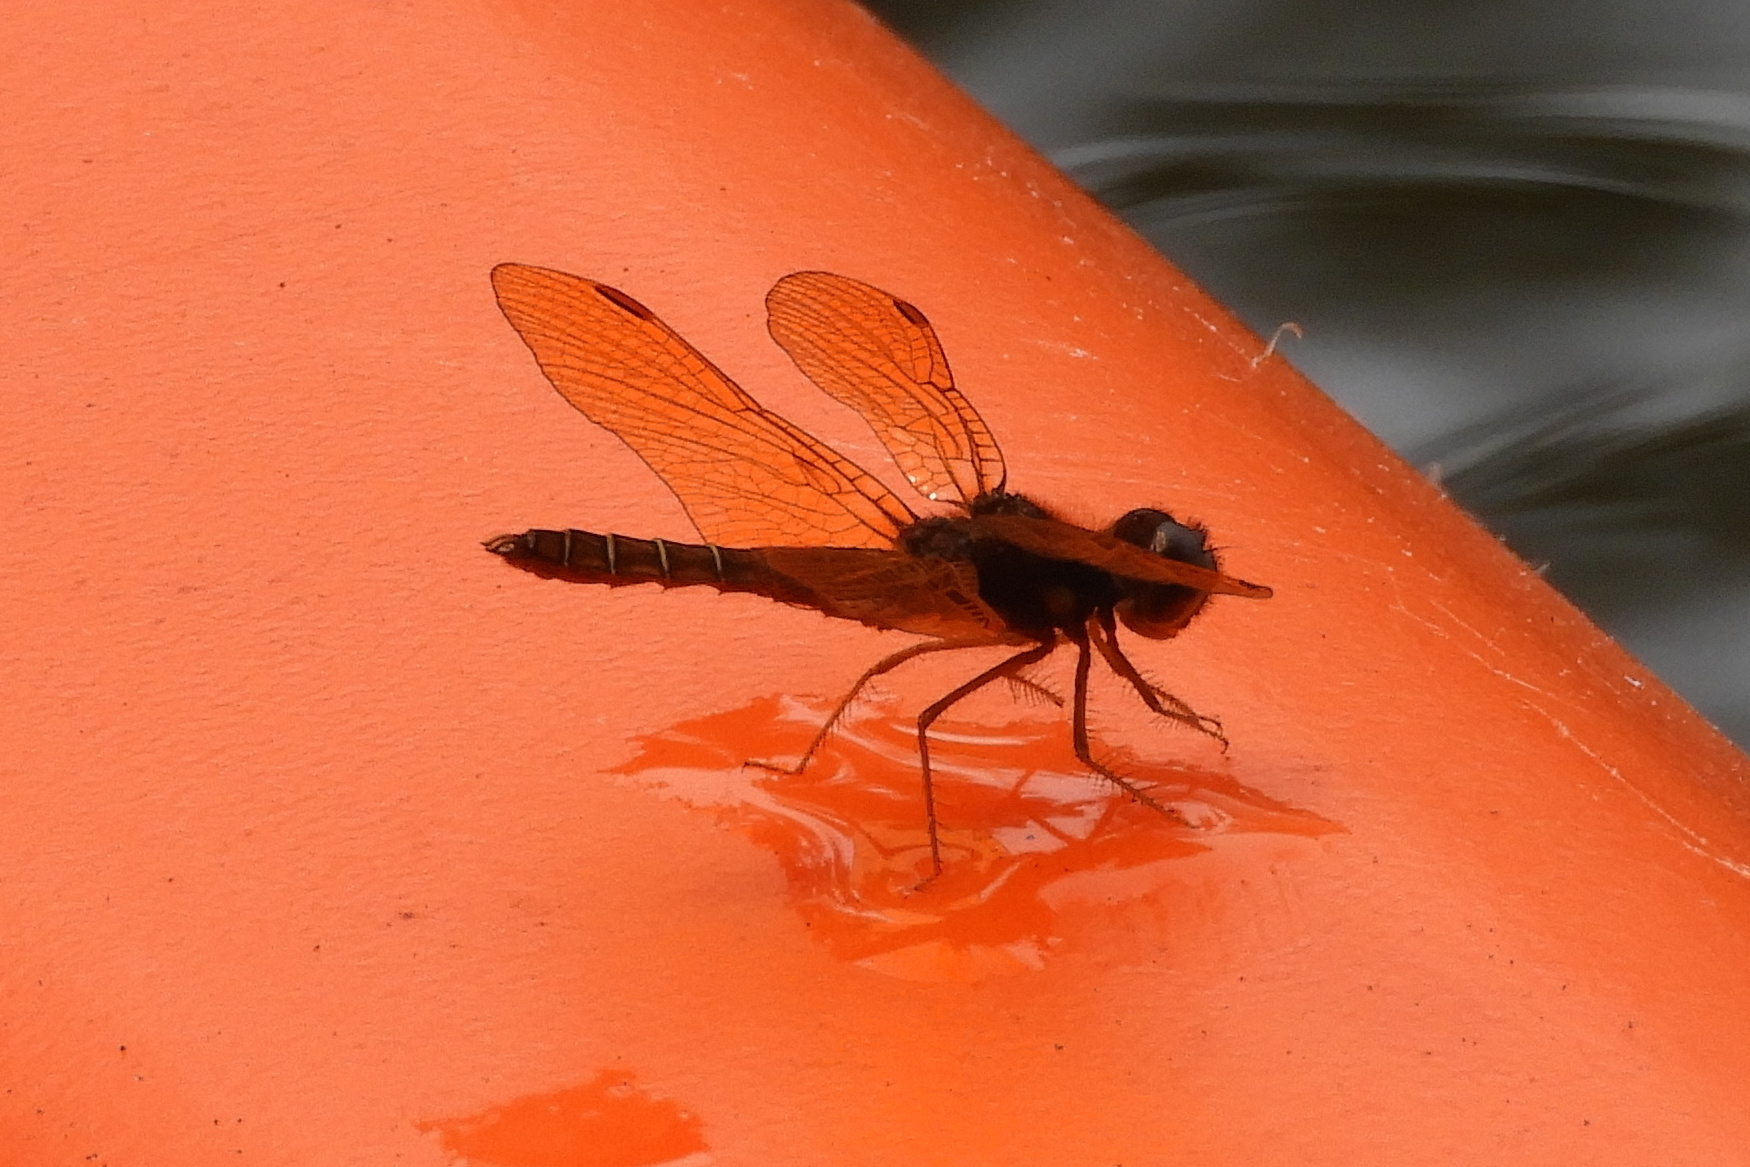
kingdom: Animalia
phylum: Arthropoda
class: Insecta
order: Odonata
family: Libellulidae
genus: Perithemis
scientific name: Perithemis tenera
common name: Eastern amberwing
